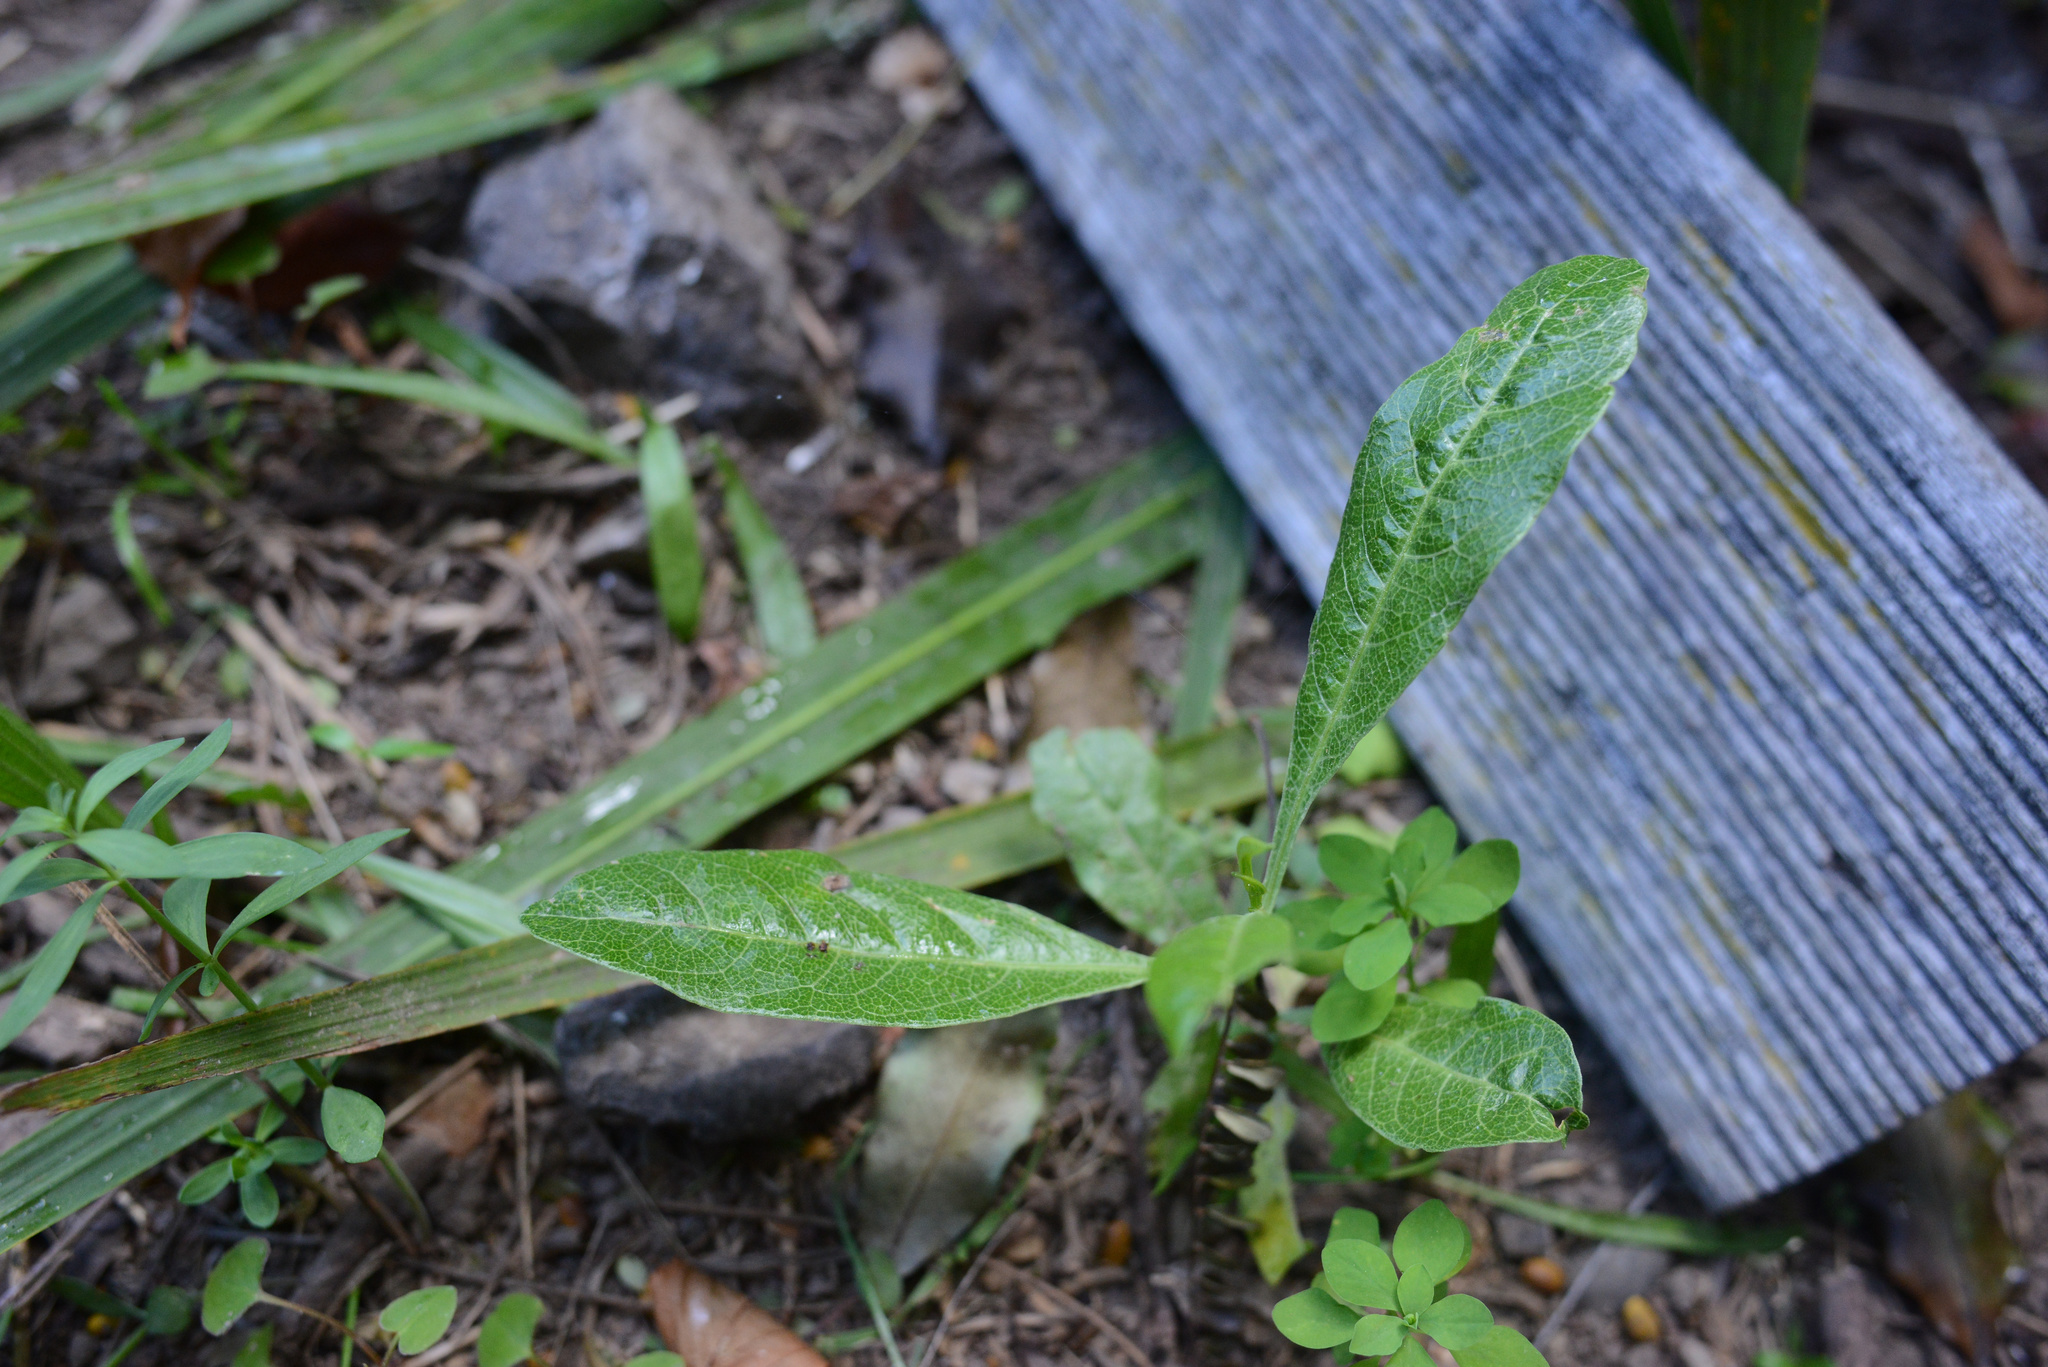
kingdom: Plantae
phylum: Tracheophyta
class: Magnoliopsida
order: Sapindales
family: Sapindaceae
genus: Dodonaea
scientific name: Dodonaea viscosa
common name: Hopbush
